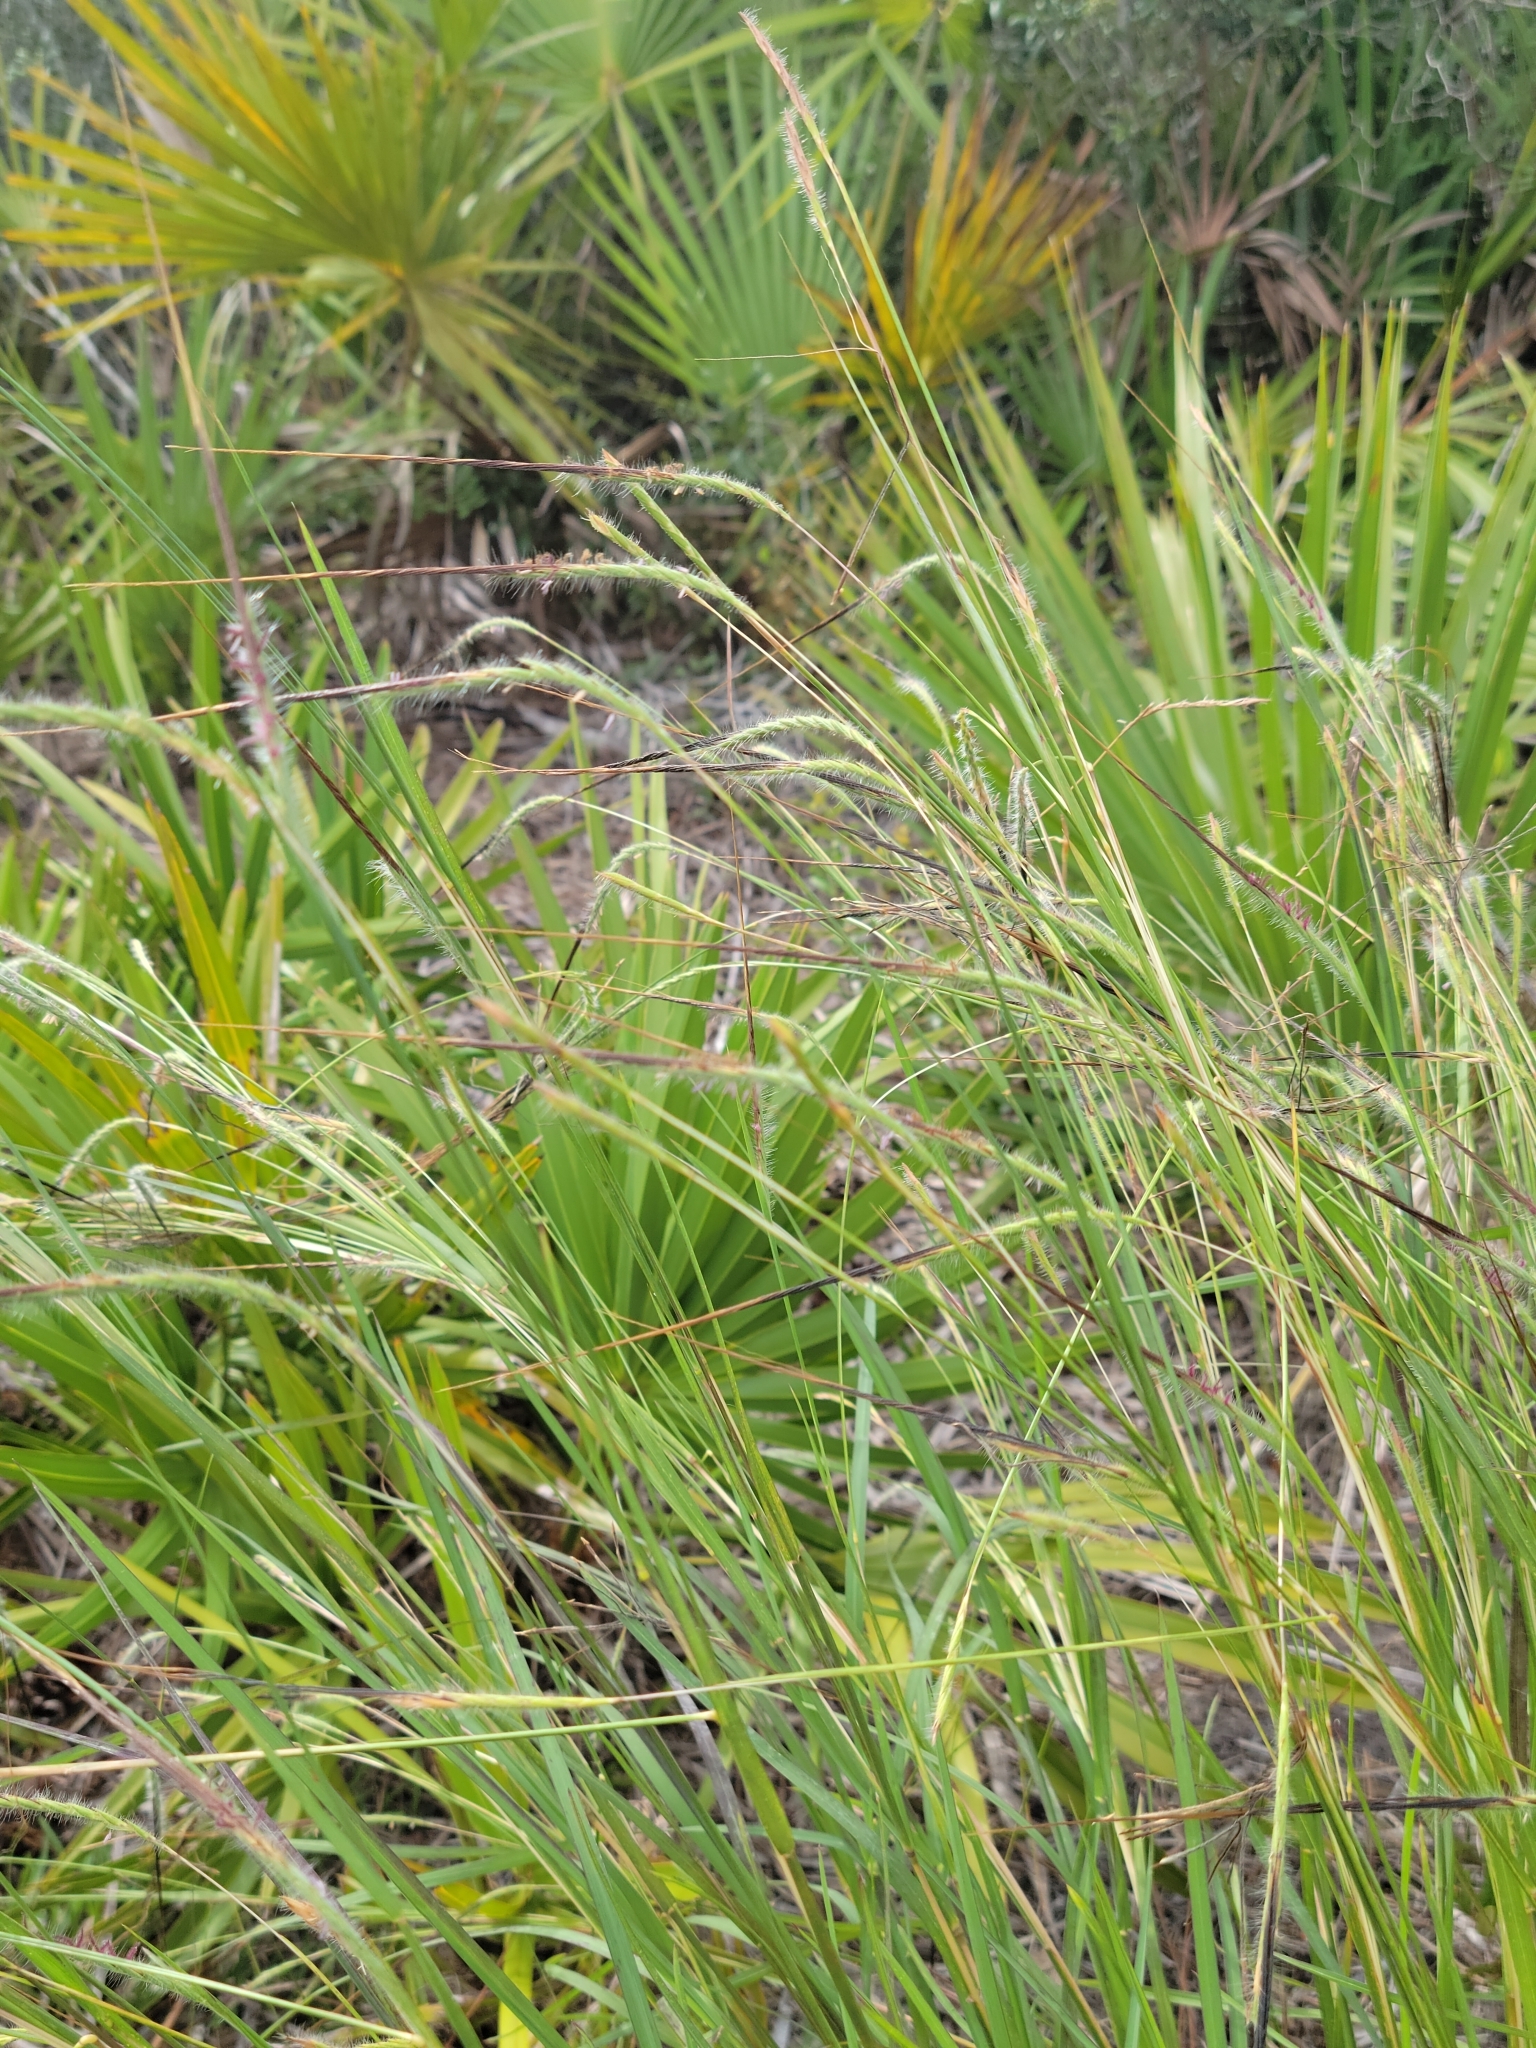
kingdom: Plantae
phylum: Tracheophyta
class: Liliopsida
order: Poales
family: Poaceae
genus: Heteropogon
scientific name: Heteropogon contortus
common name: Tanglehead
